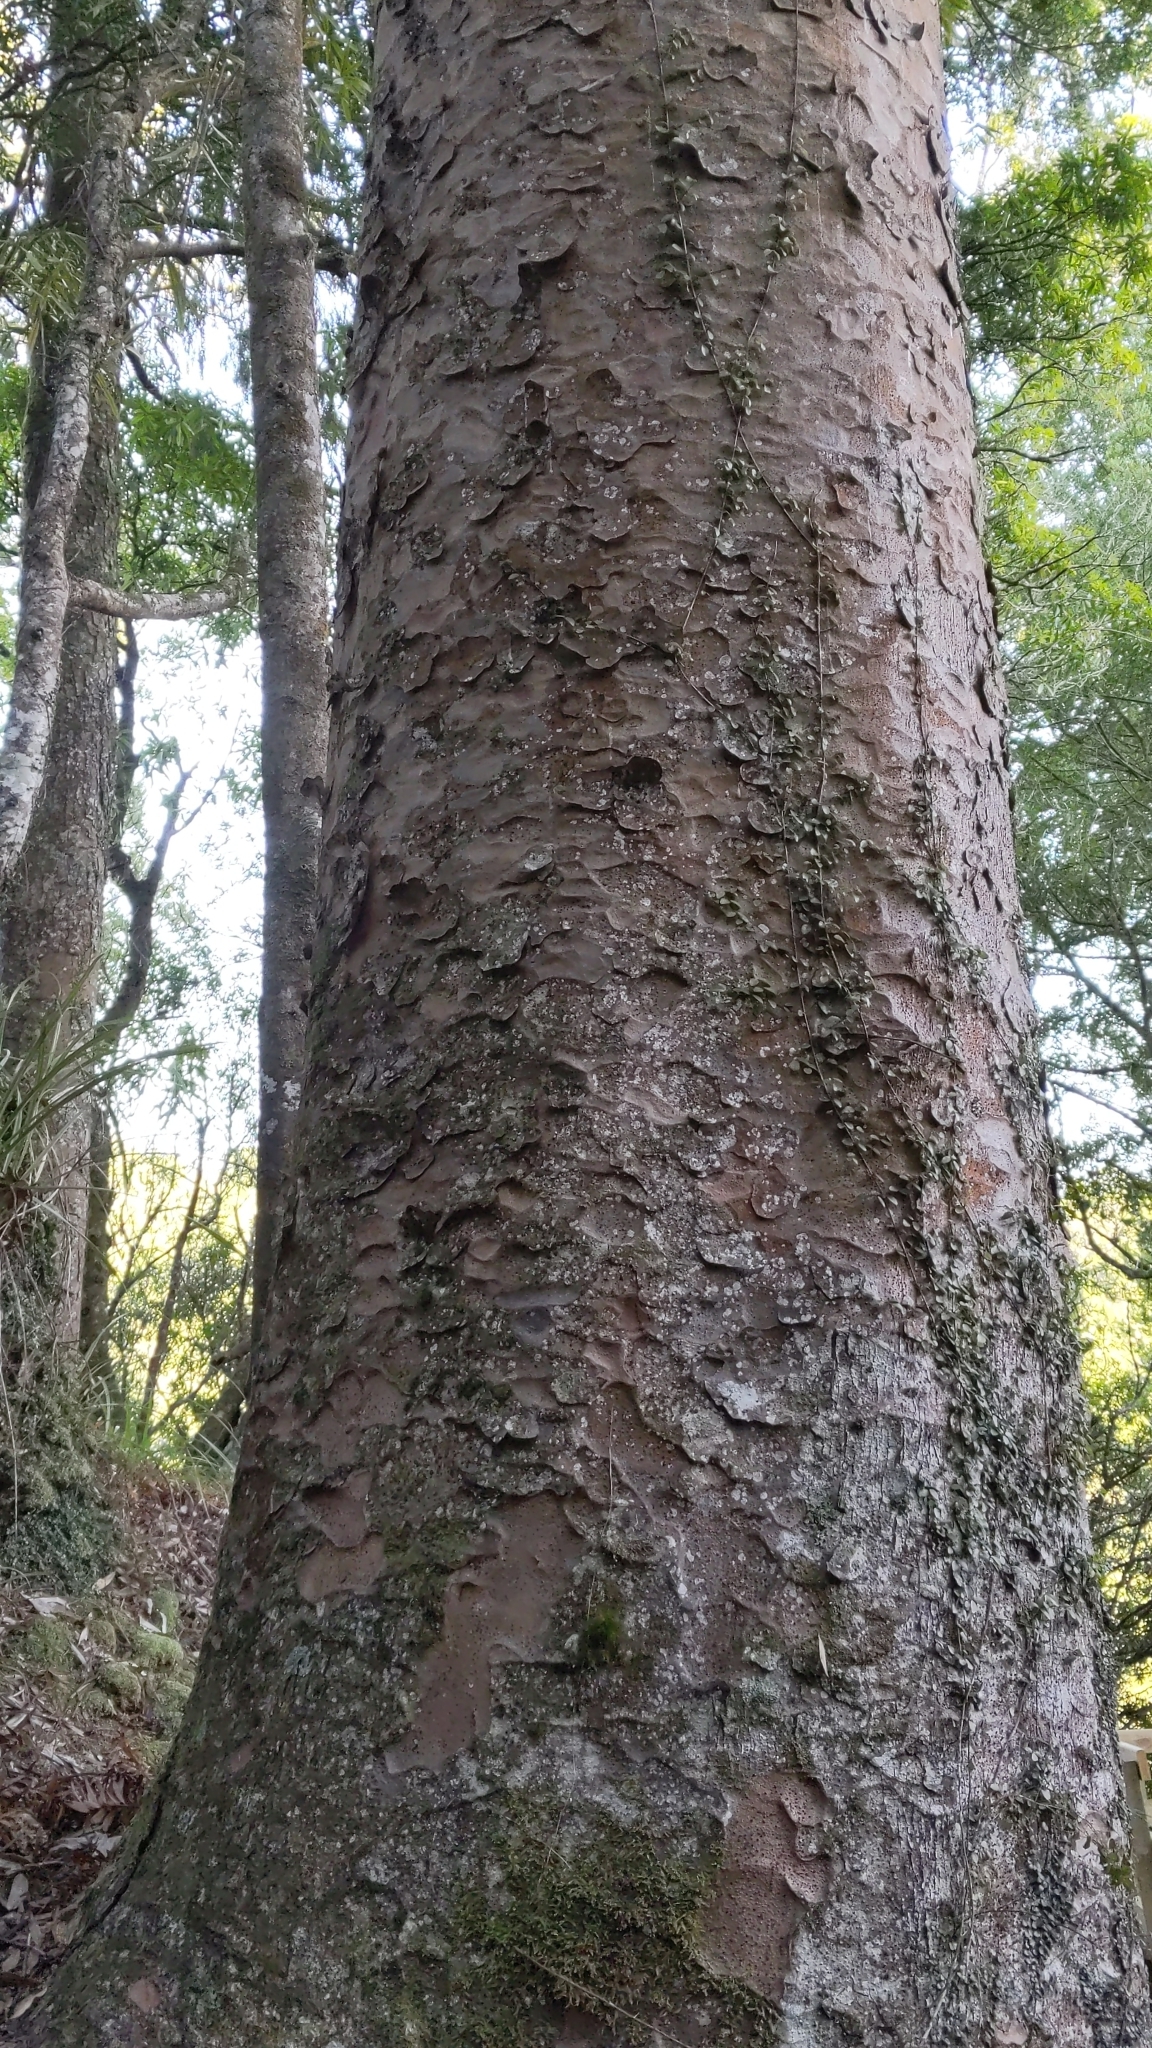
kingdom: Plantae
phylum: Tracheophyta
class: Pinopsida
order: Pinales
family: Araucariaceae
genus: Agathis
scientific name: Agathis australis
